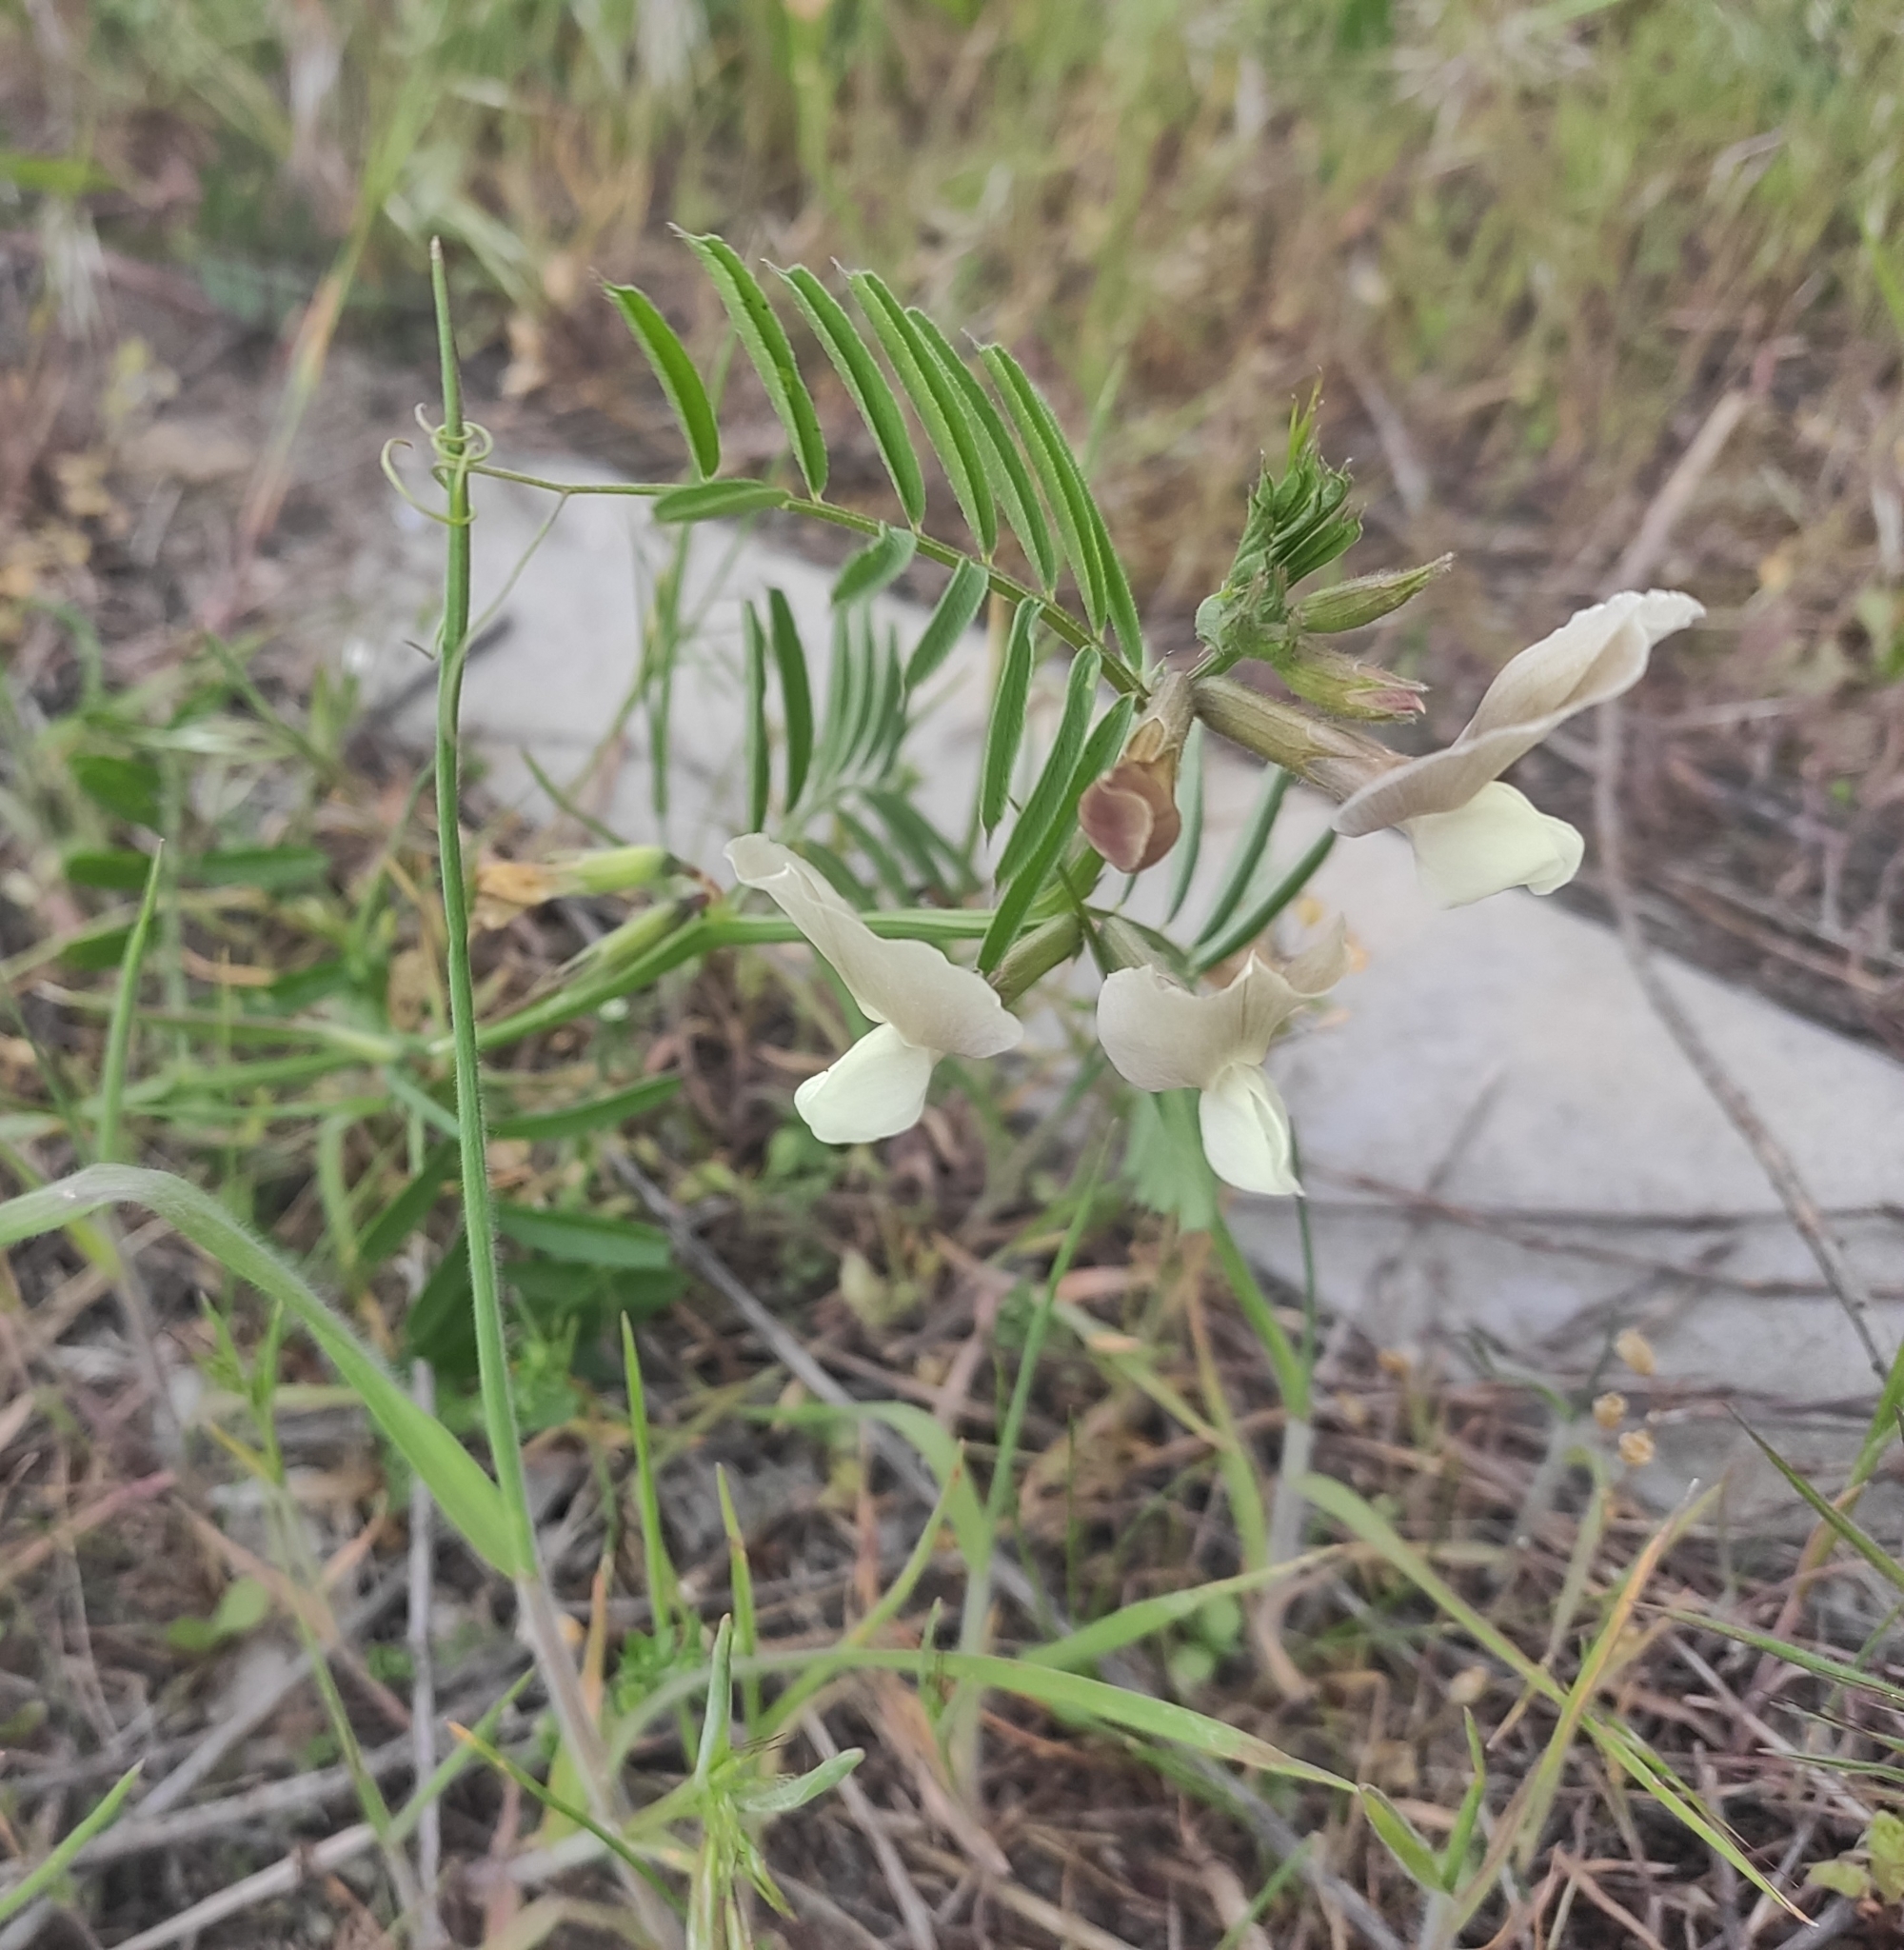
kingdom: Plantae
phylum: Tracheophyta
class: Magnoliopsida
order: Fabales
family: Fabaceae
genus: Vicia
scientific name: Vicia grandiflora
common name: Large yellow vetch
